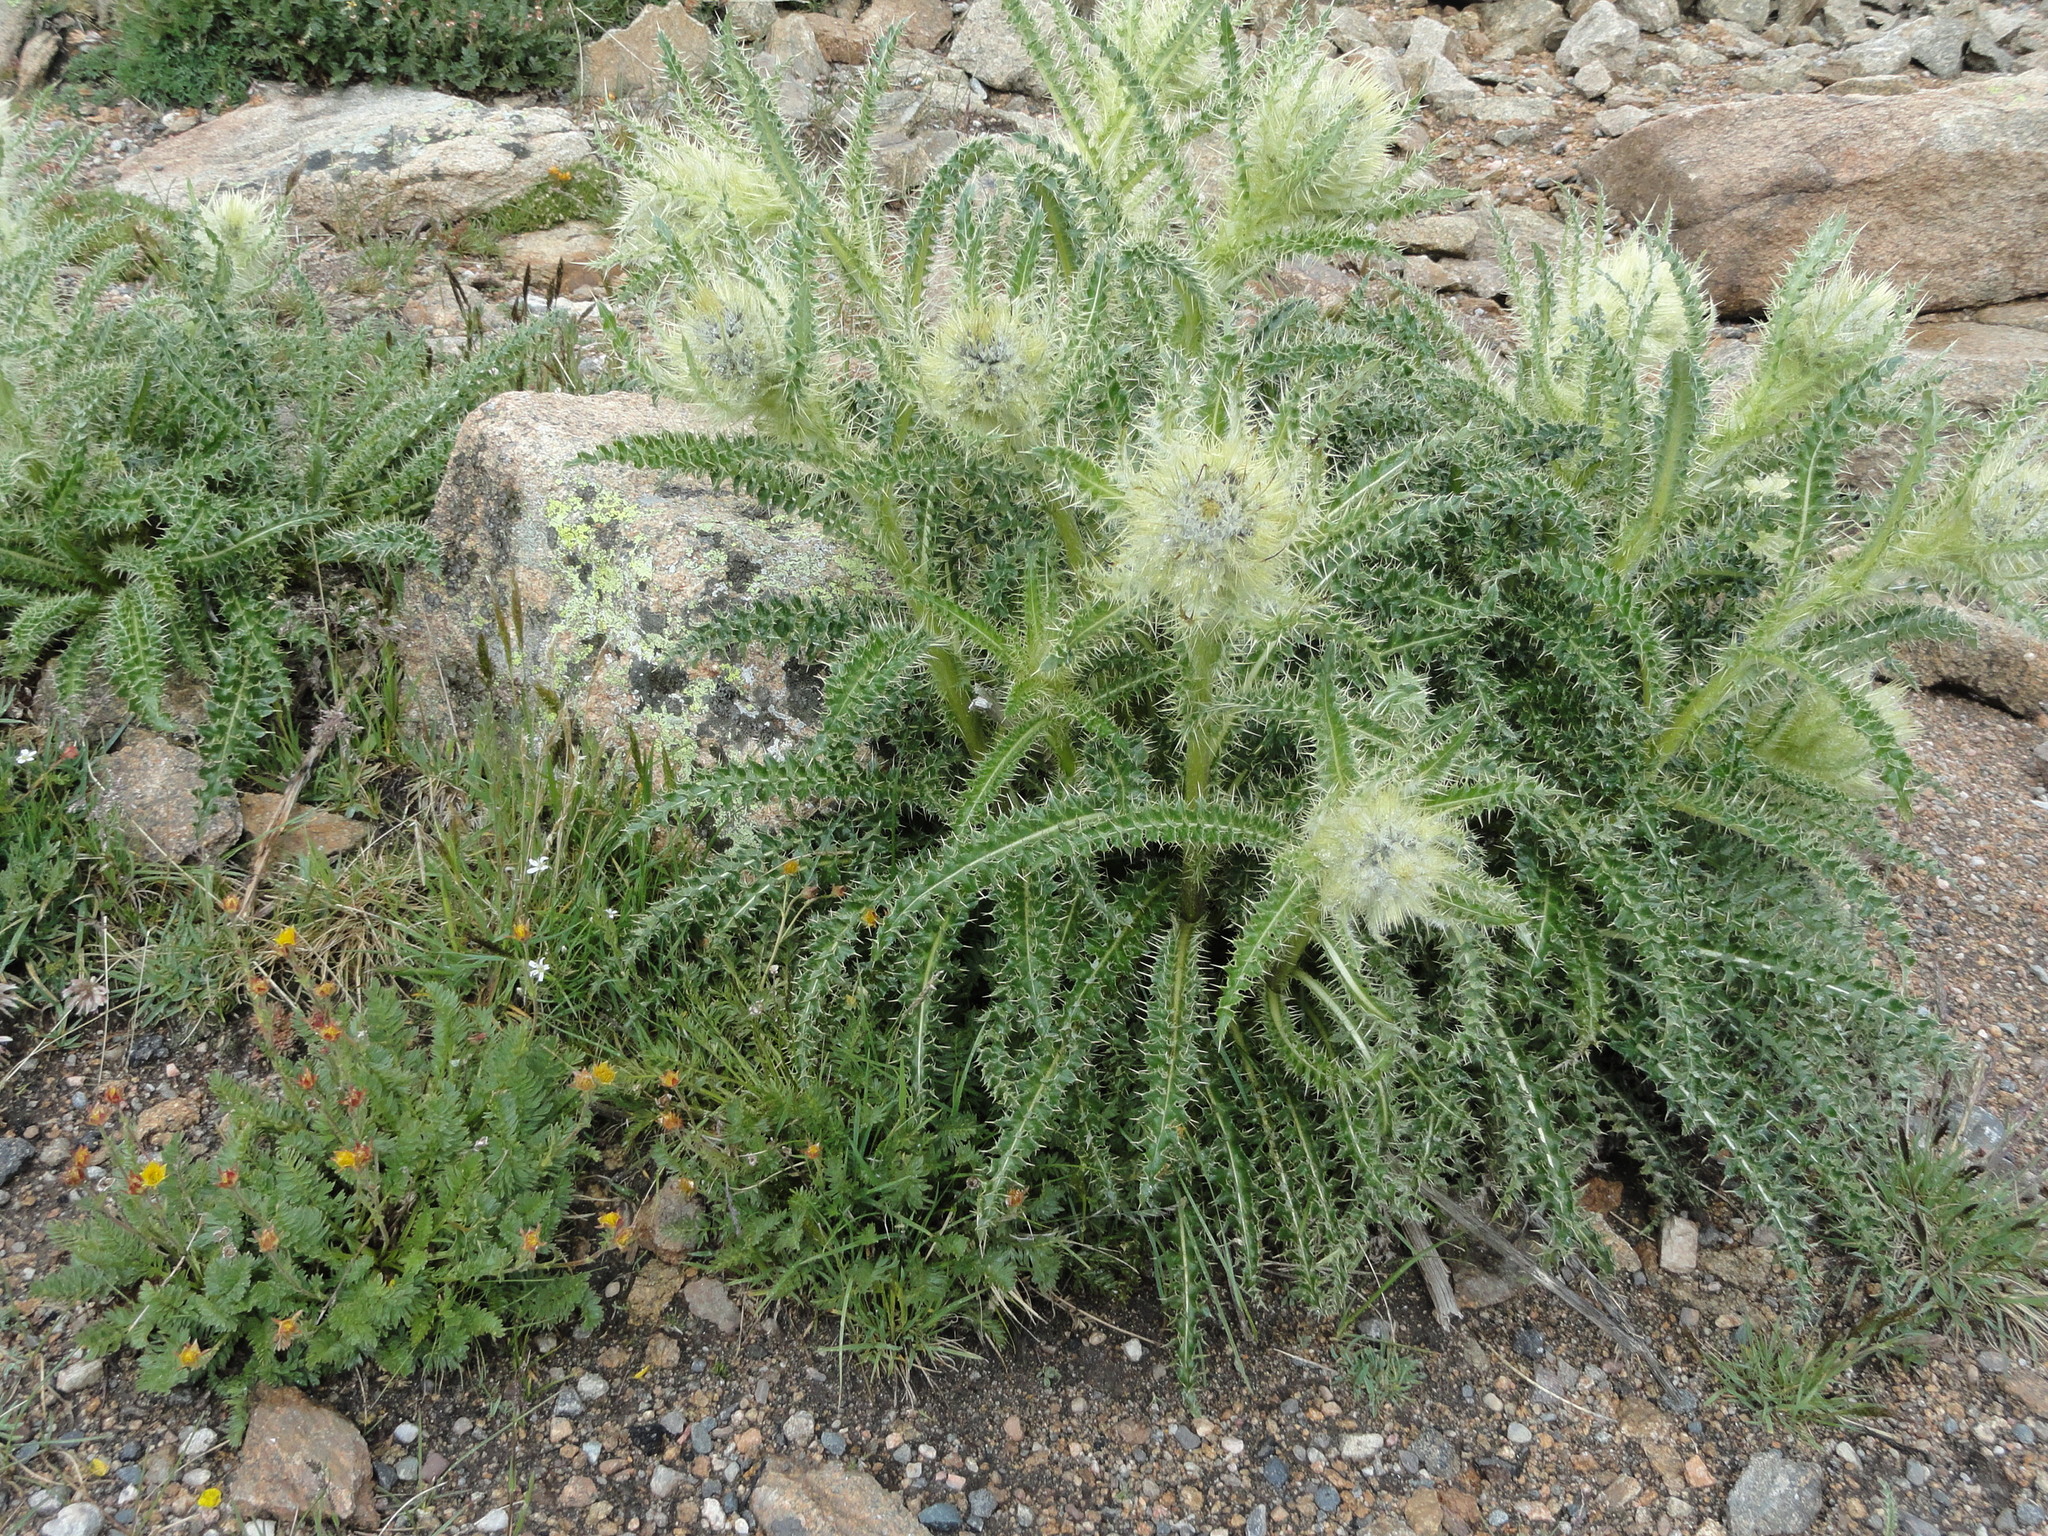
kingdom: Plantae
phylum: Tracheophyta
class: Magnoliopsida
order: Asterales
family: Asteraceae
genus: Cirsium
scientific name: Cirsium scopulorum
